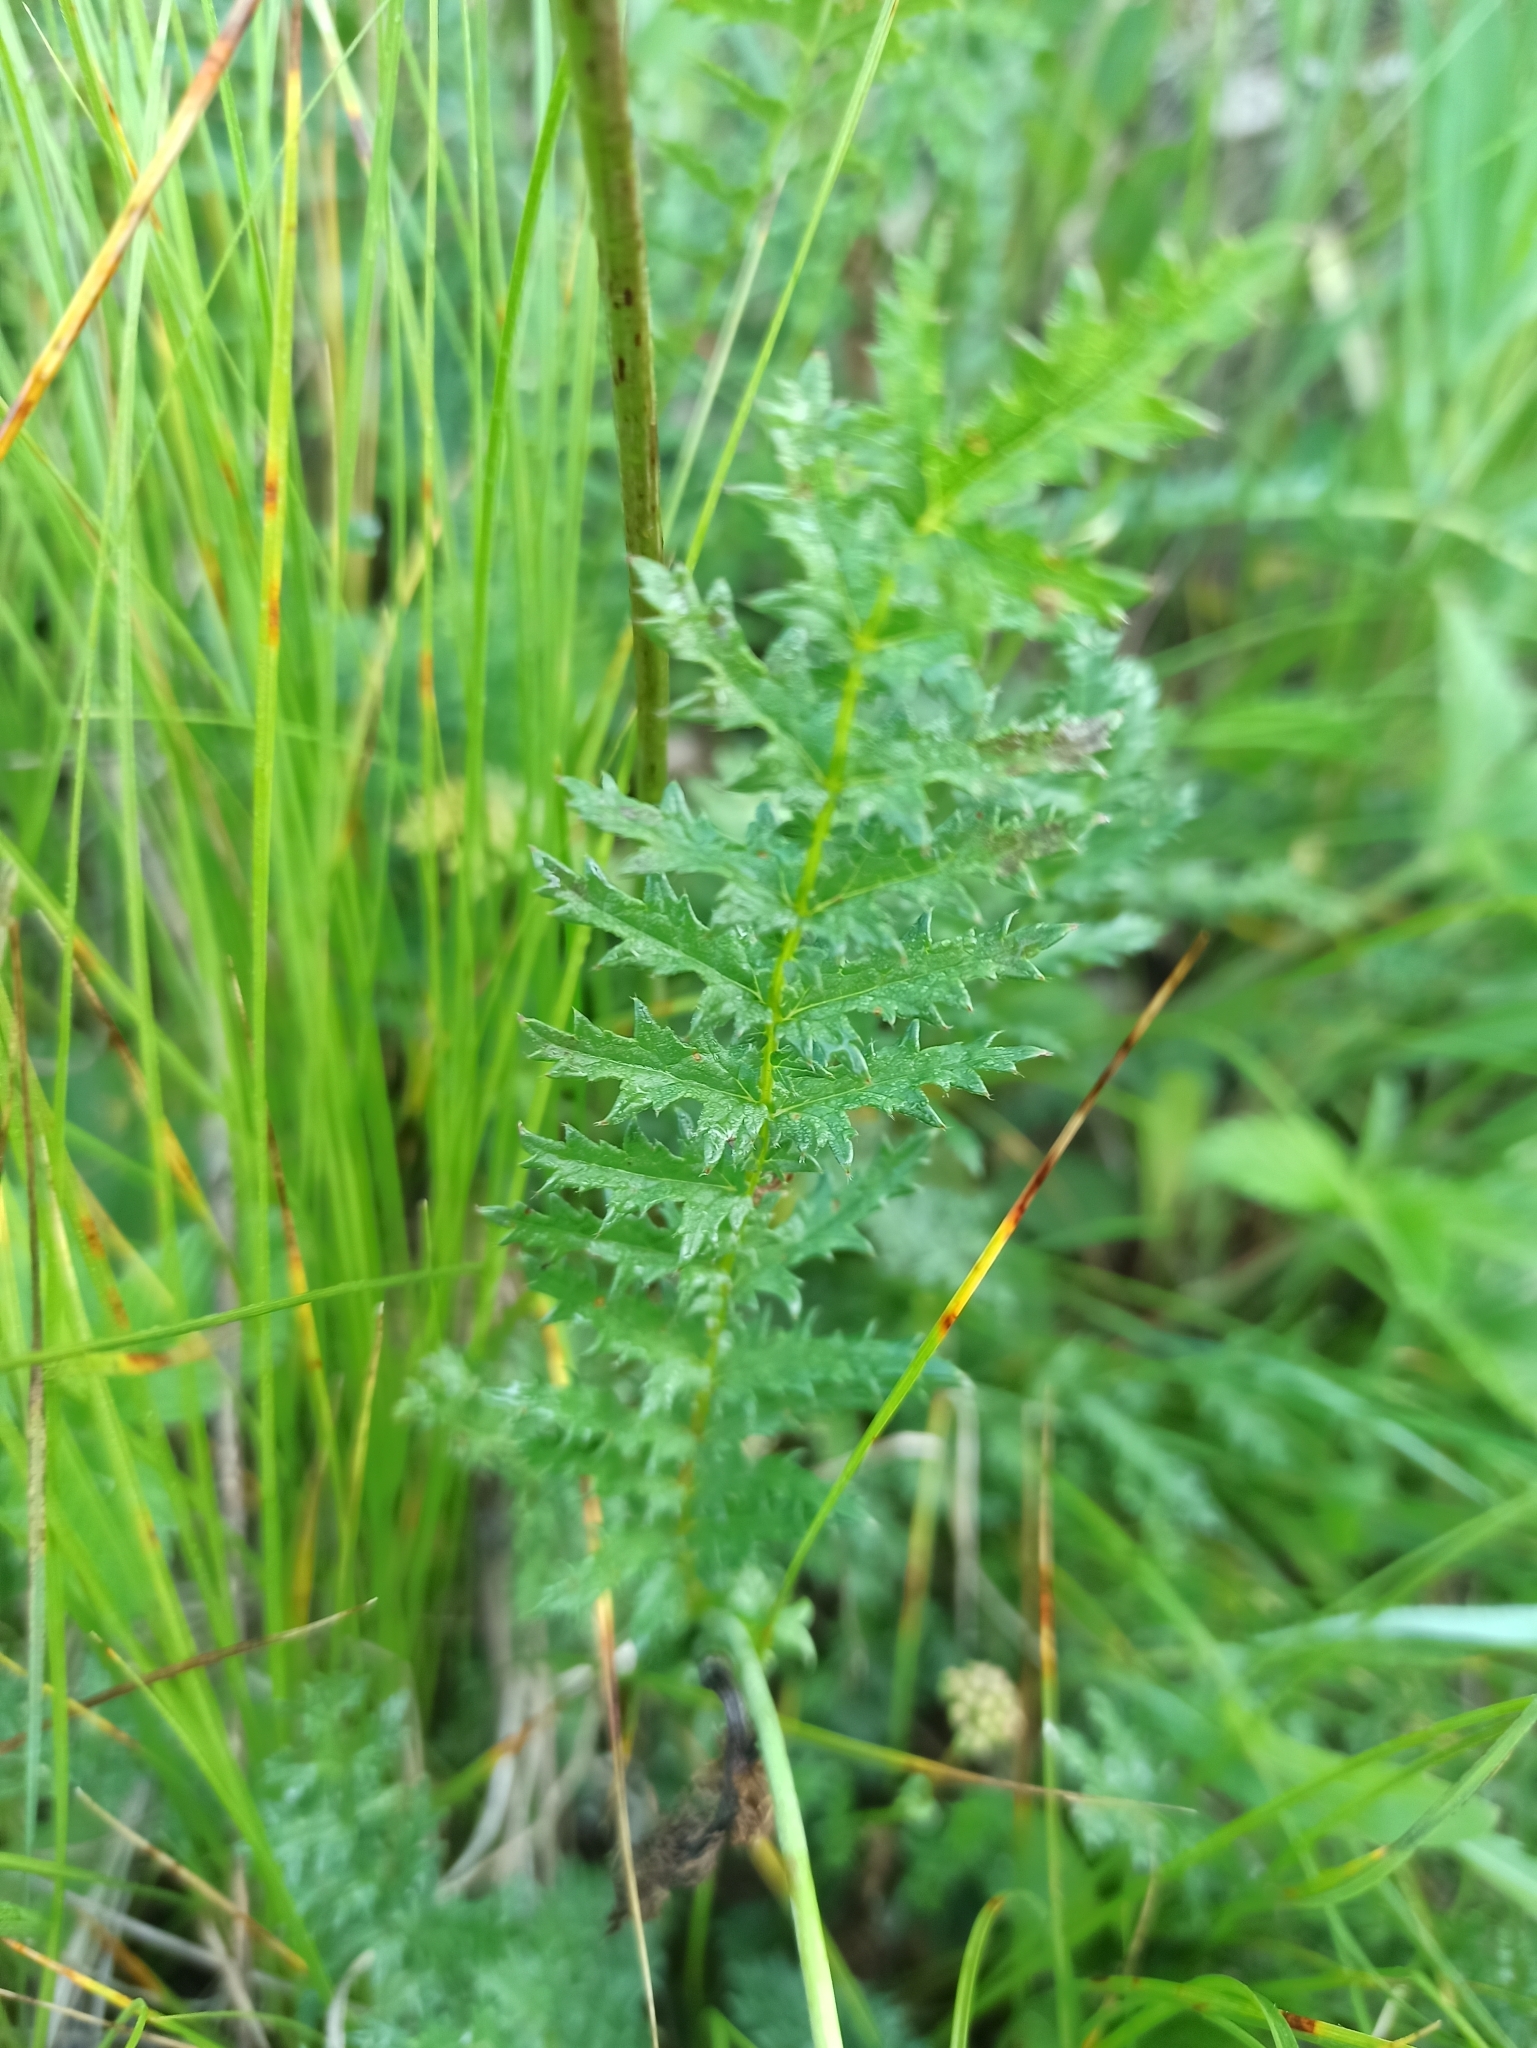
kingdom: Plantae
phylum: Tracheophyta
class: Magnoliopsida
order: Rosales
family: Rosaceae
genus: Filipendula
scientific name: Filipendula vulgaris
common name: Dropwort
